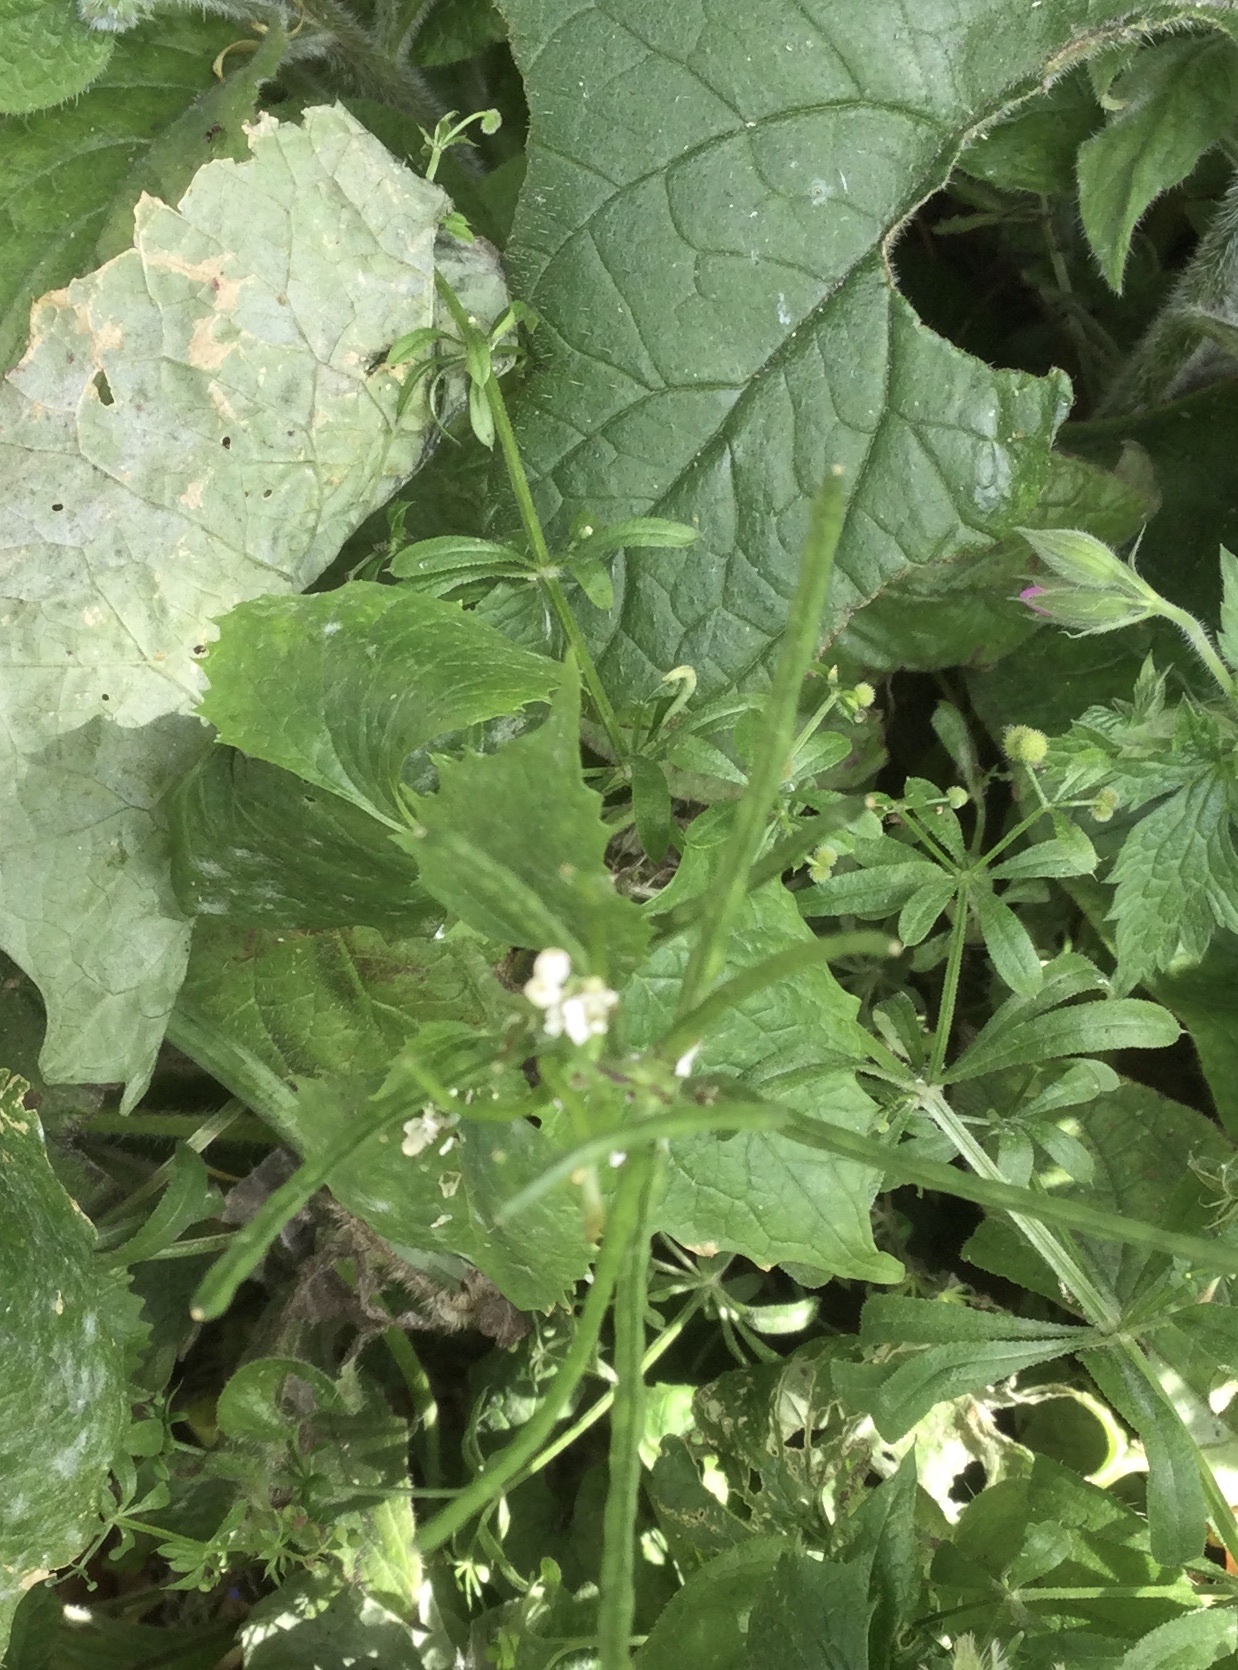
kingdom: Plantae
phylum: Tracheophyta
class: Magnoliopsida
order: Brassicales
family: Brassicaceae
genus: Alliaria
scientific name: Alliaria petiolata
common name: Garlic mustard
